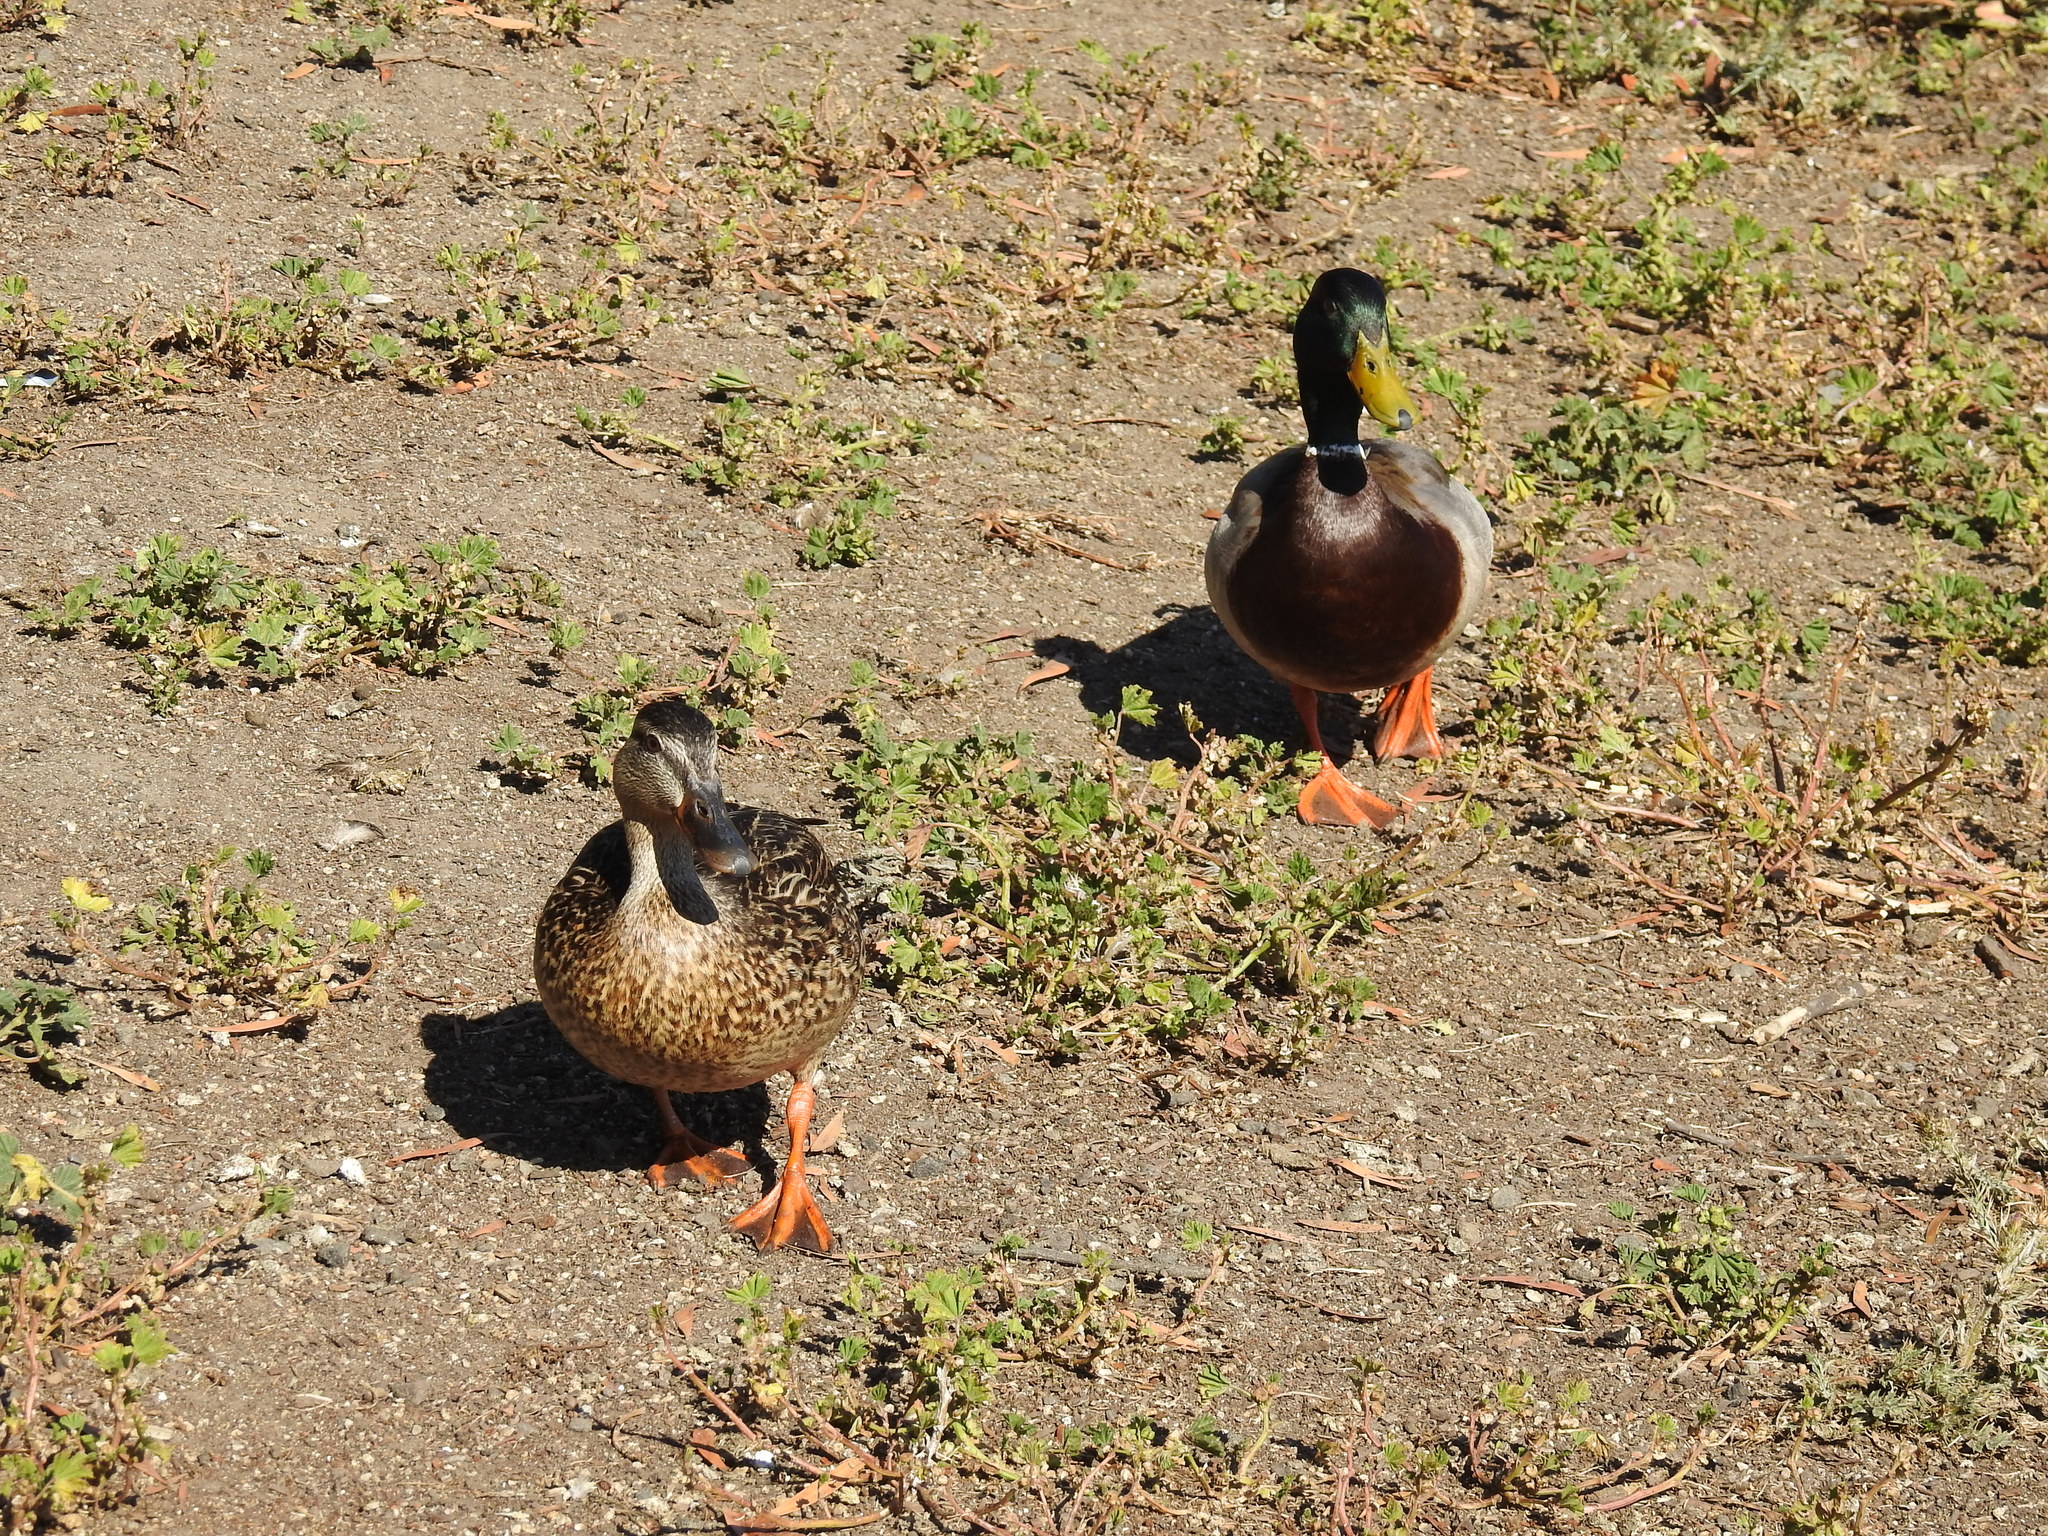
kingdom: Animalia
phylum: Chordata
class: Aves
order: Anseriformes
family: Anatidae
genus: Anas
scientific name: Anas platyrhynchos
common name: Mallard
